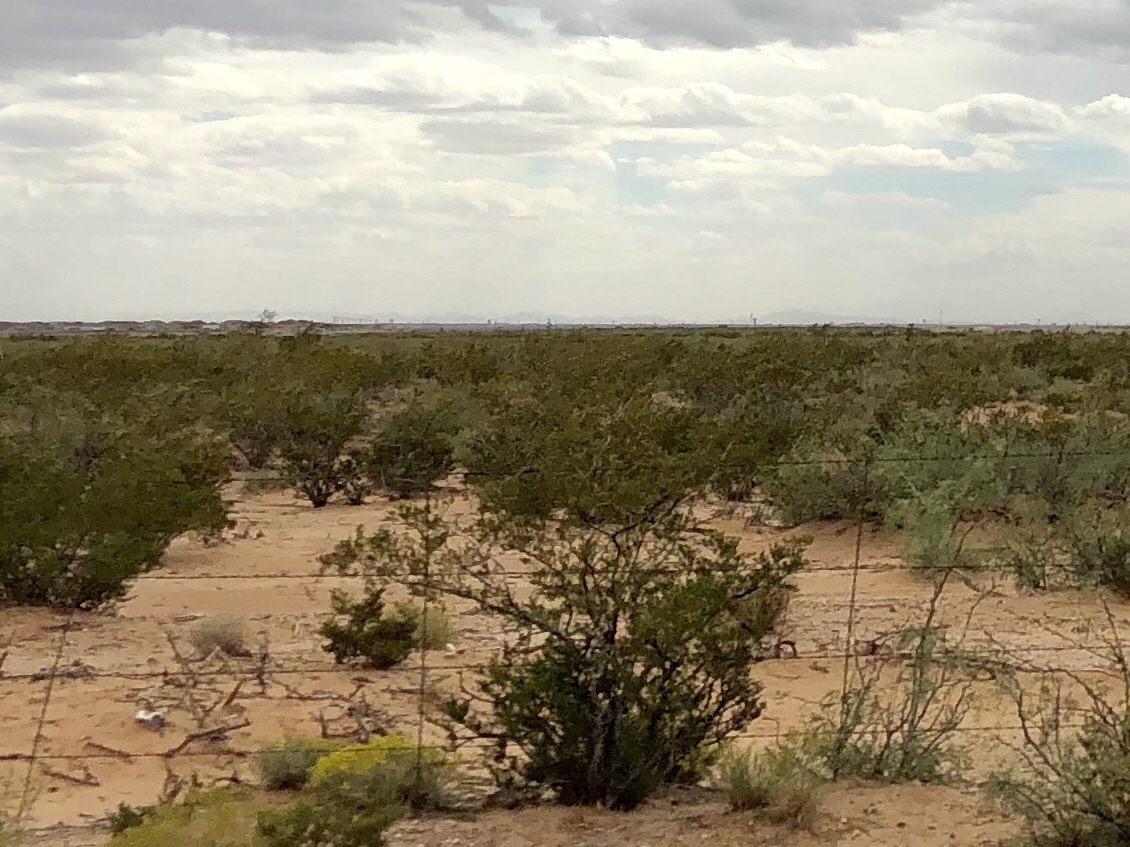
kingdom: Plantae
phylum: Tracheophyta
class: Magnoliopsida
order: Zygophyllales
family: Zygophyllaceae
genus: Larrea
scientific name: Larrea tridentata
